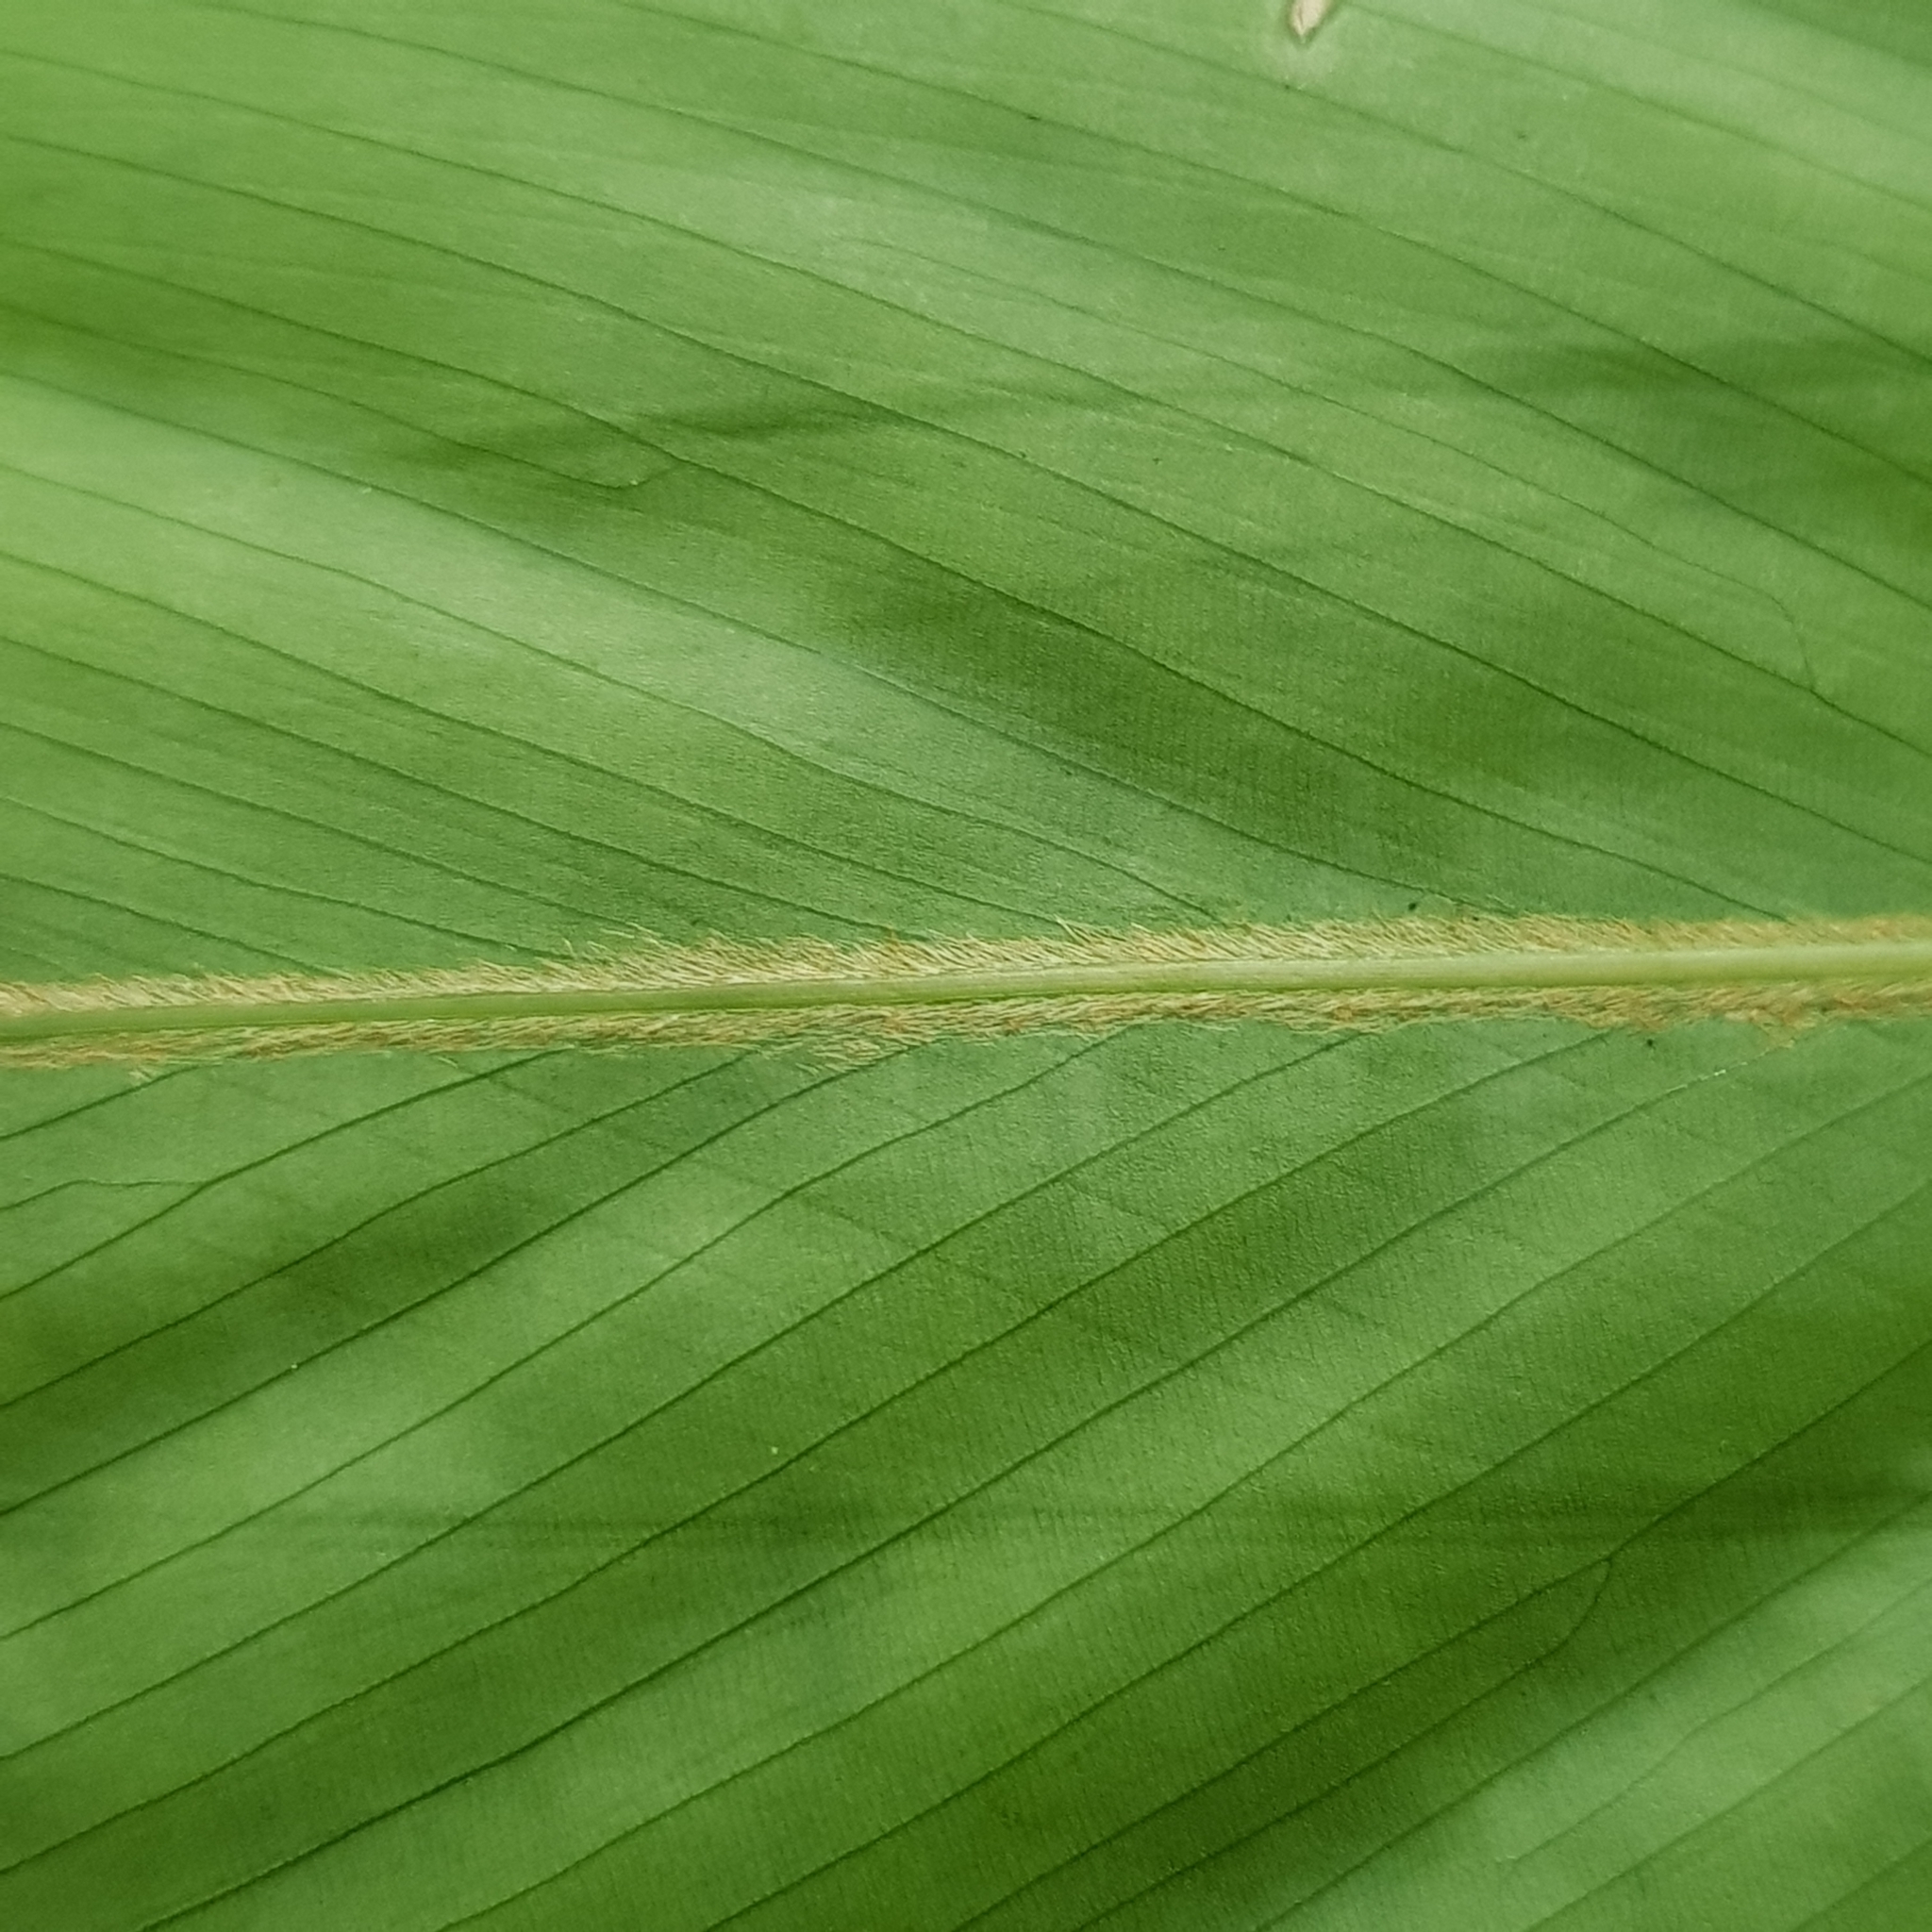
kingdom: Plantae
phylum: Tracheophyta
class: Liliopsida
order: Zingiberales
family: Marantaceae
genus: Donax
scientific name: Donax canniformis
